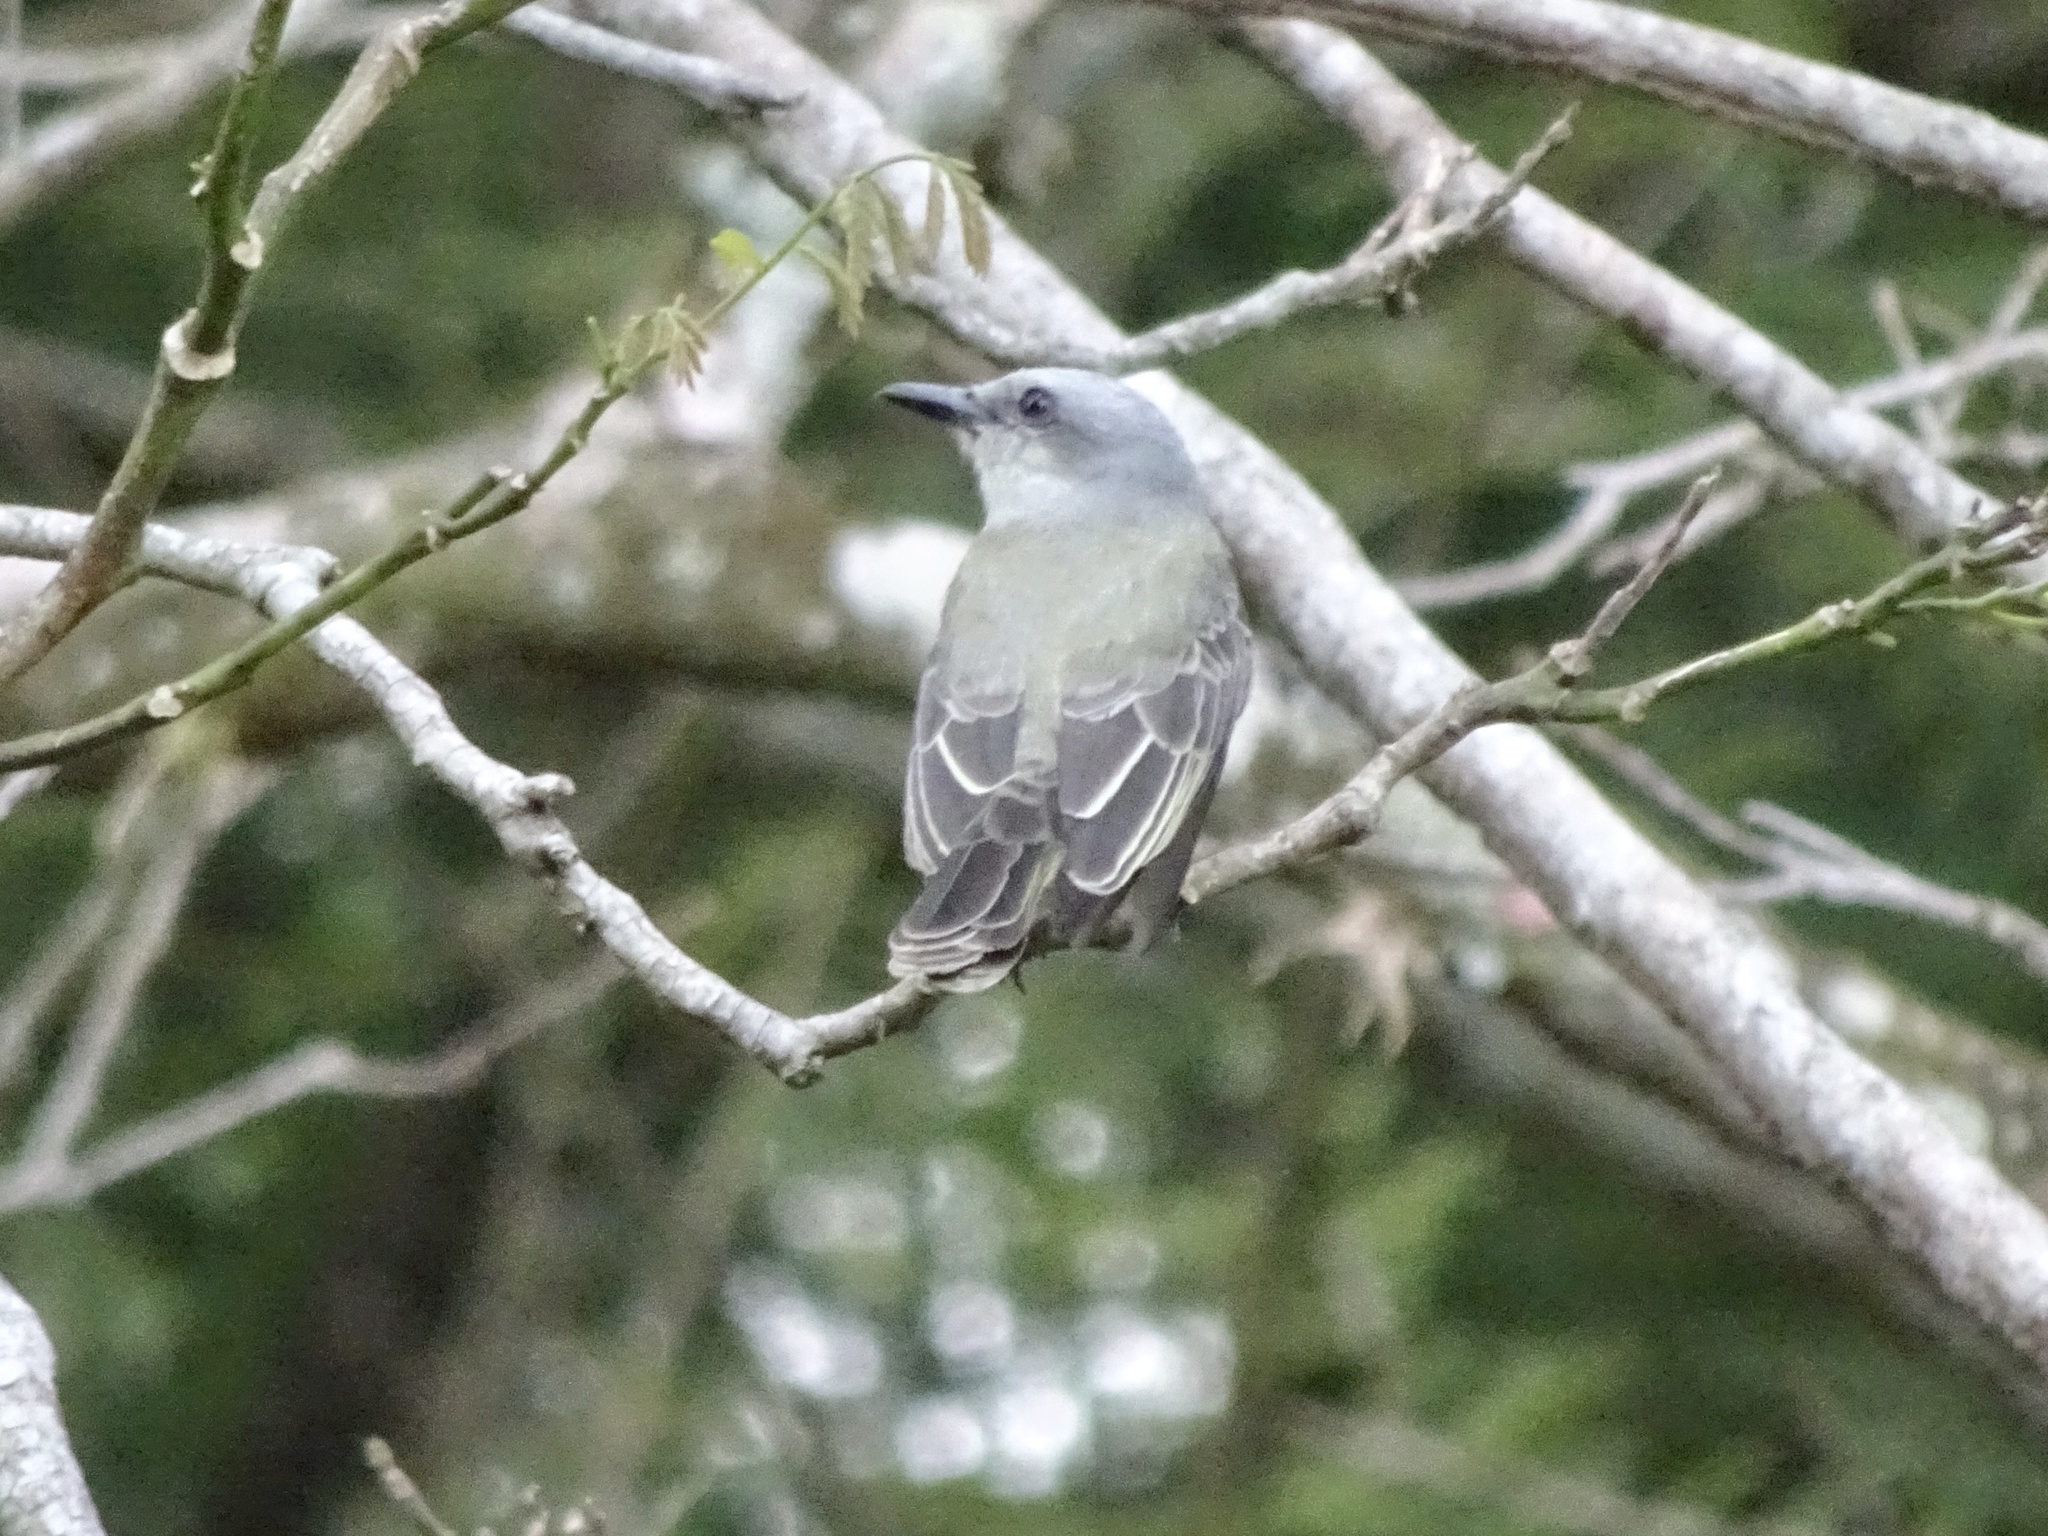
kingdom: Animalia
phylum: Chordata
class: Aves
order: Passeriformes
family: Tyrannidae
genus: Tyrannus
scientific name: Tyrannus melancholicus
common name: Tropical kingbird
